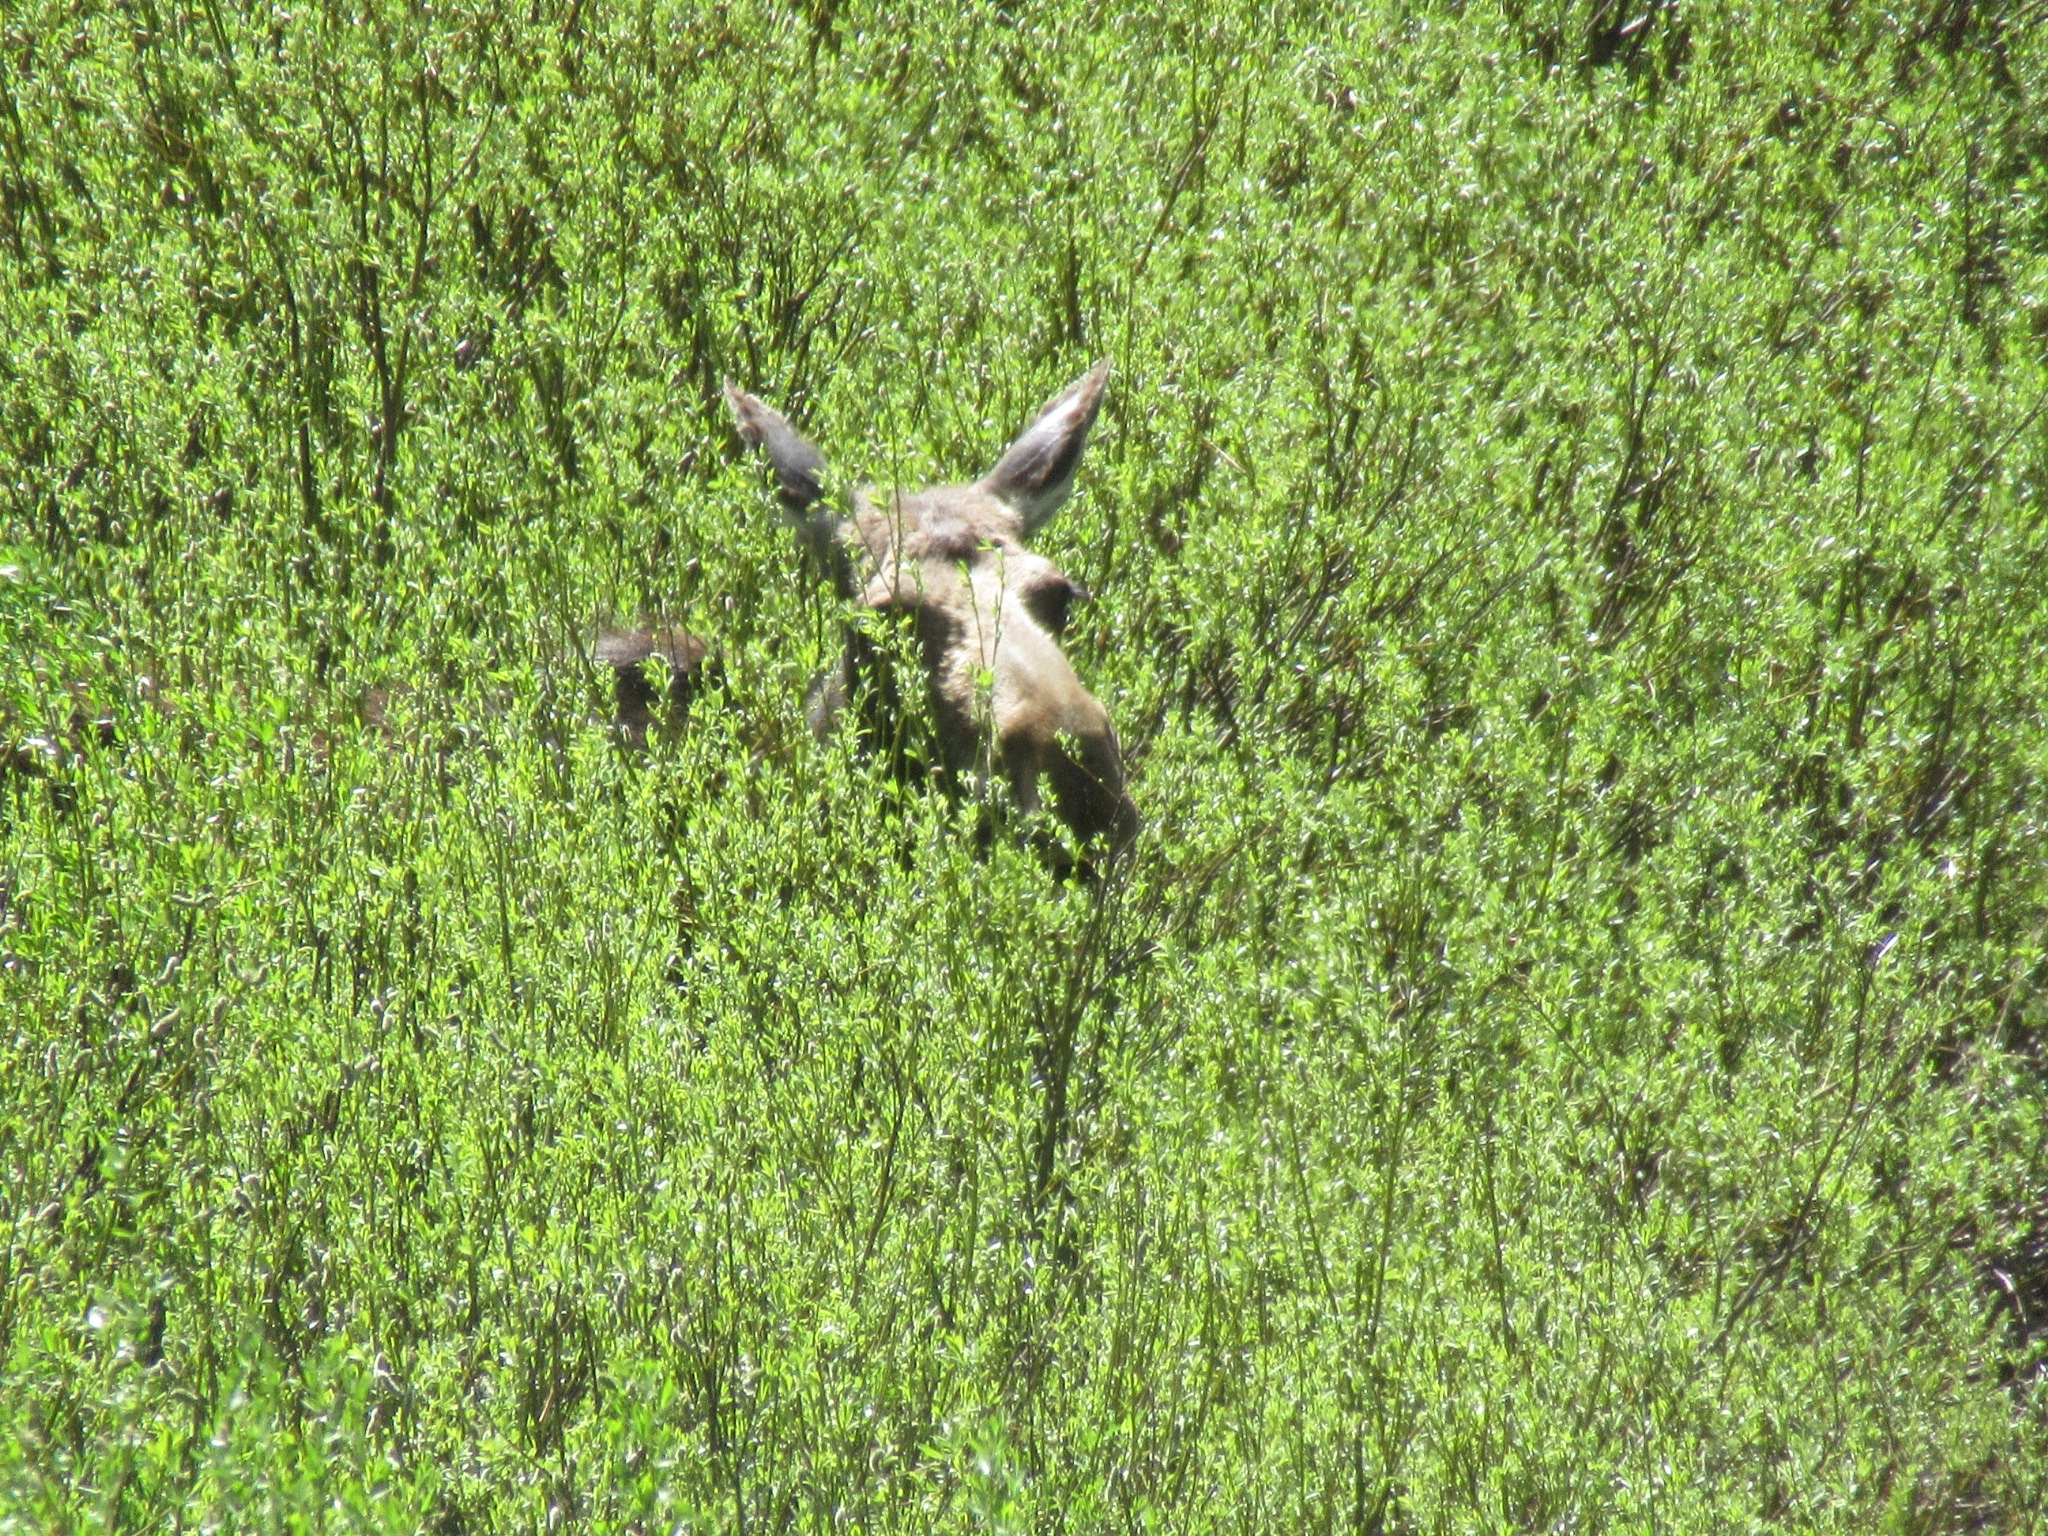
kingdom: Animalia
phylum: Chordata
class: Mammalia
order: Artiodactyla
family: Cervidae
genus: Alces
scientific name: Alces americanus
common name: Moose
